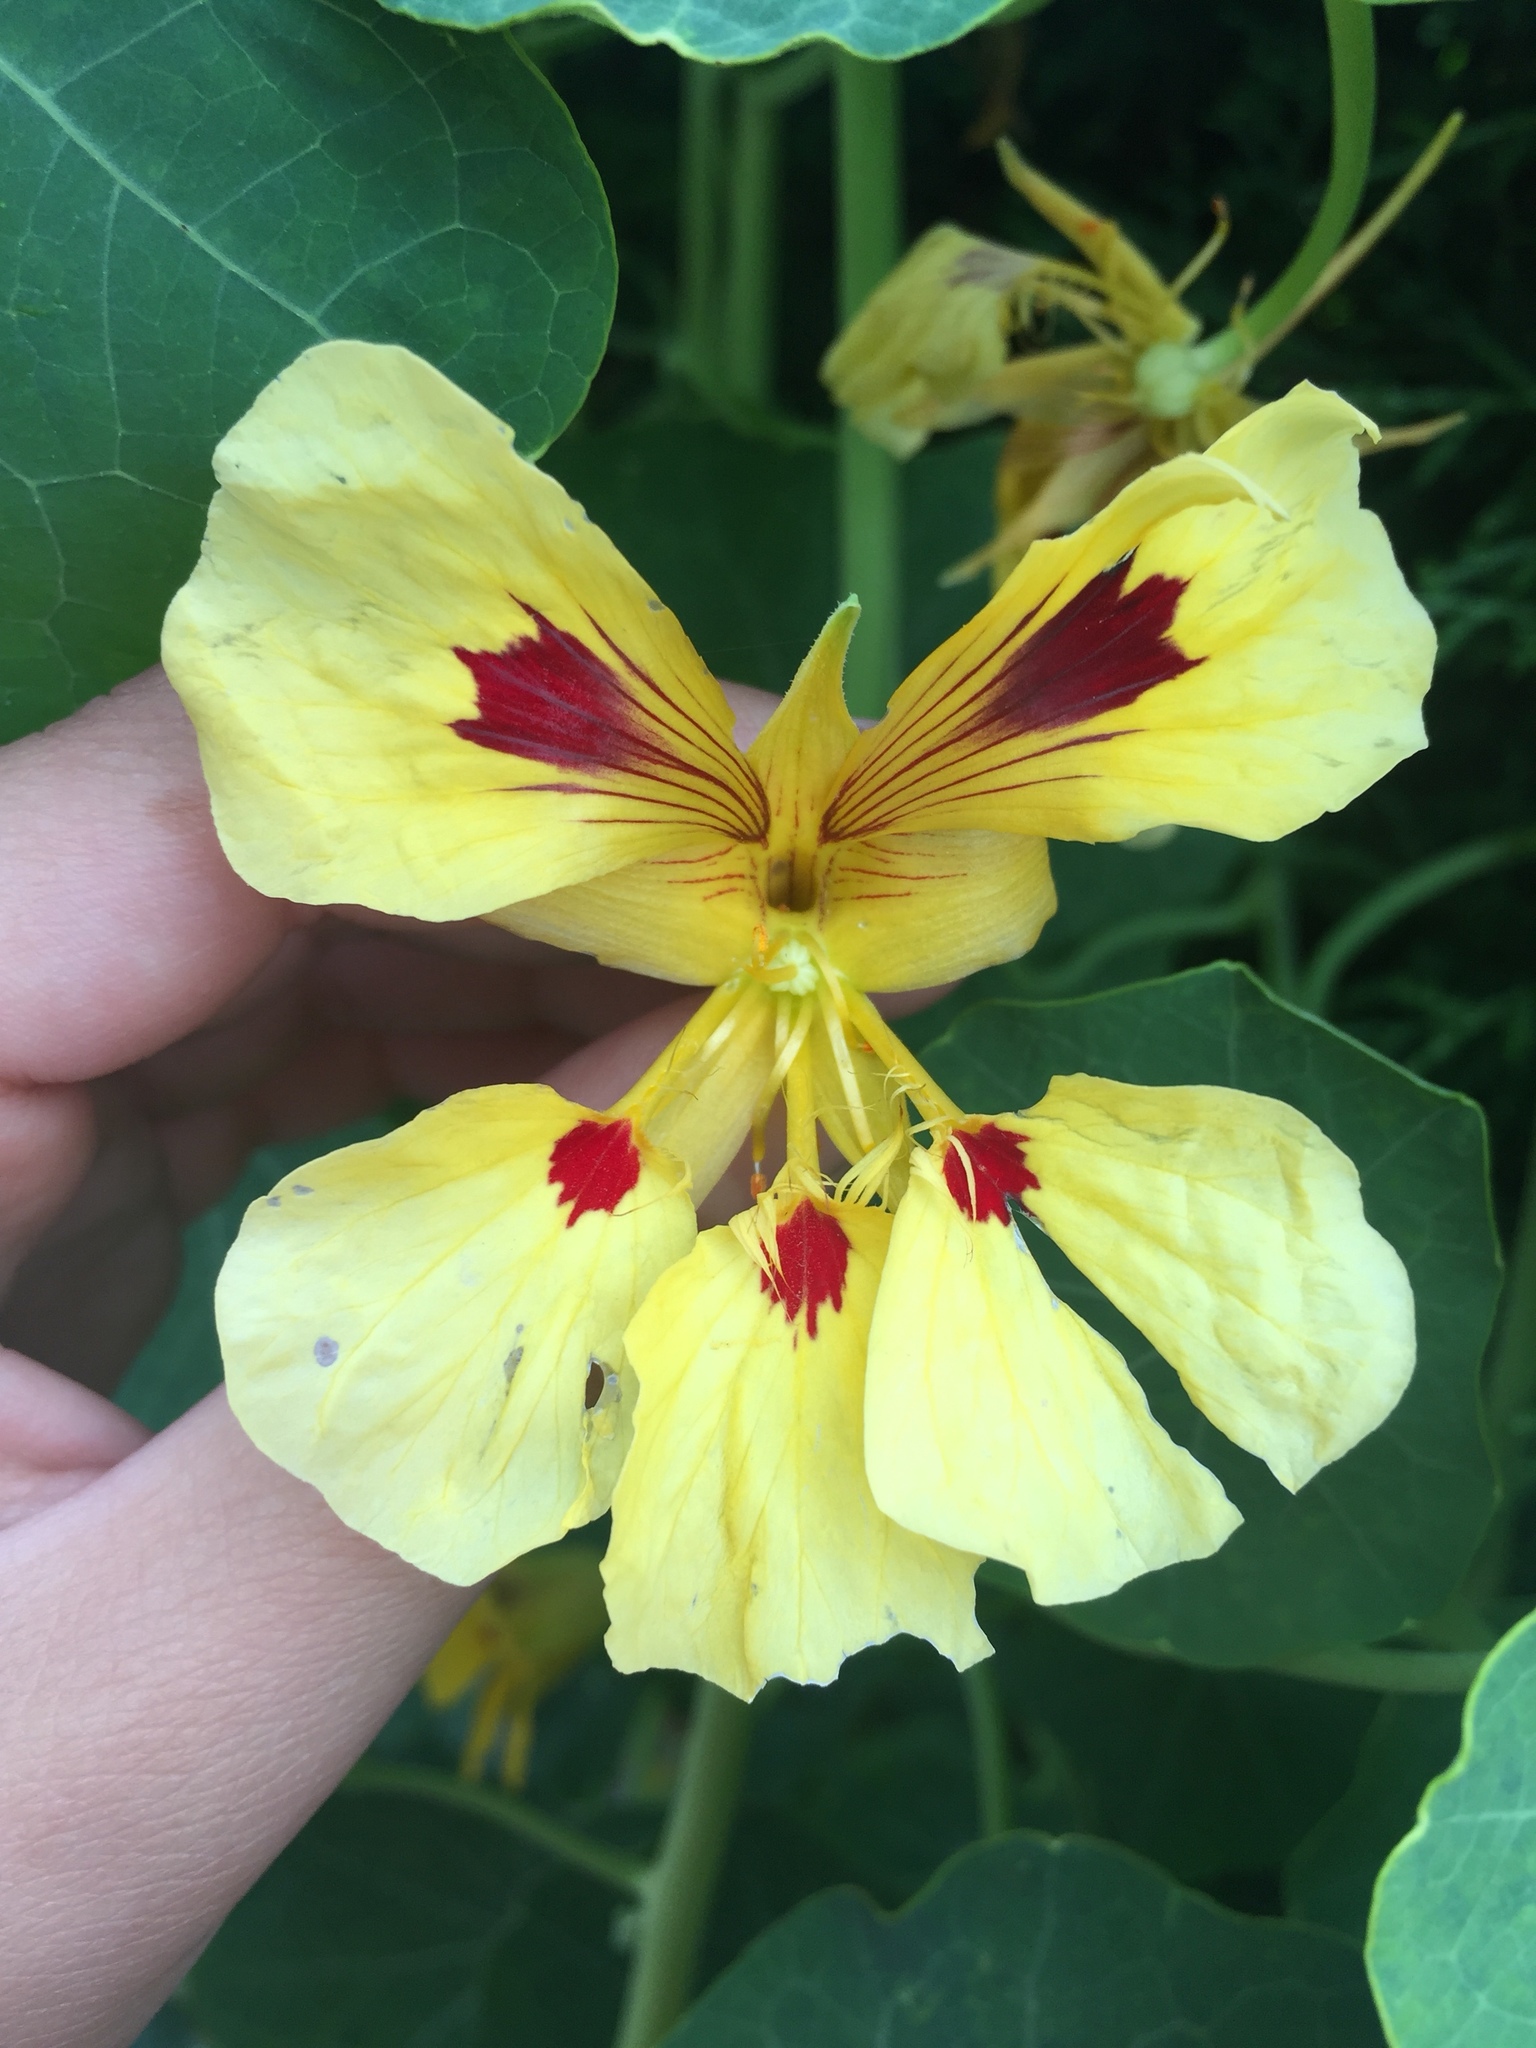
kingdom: Plantae
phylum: Tracheophyta
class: Magnoliopsida
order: Brassicales
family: Tropaeolaceae
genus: Tropaeolum
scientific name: Tropaeolum majus
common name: Nasturtium
